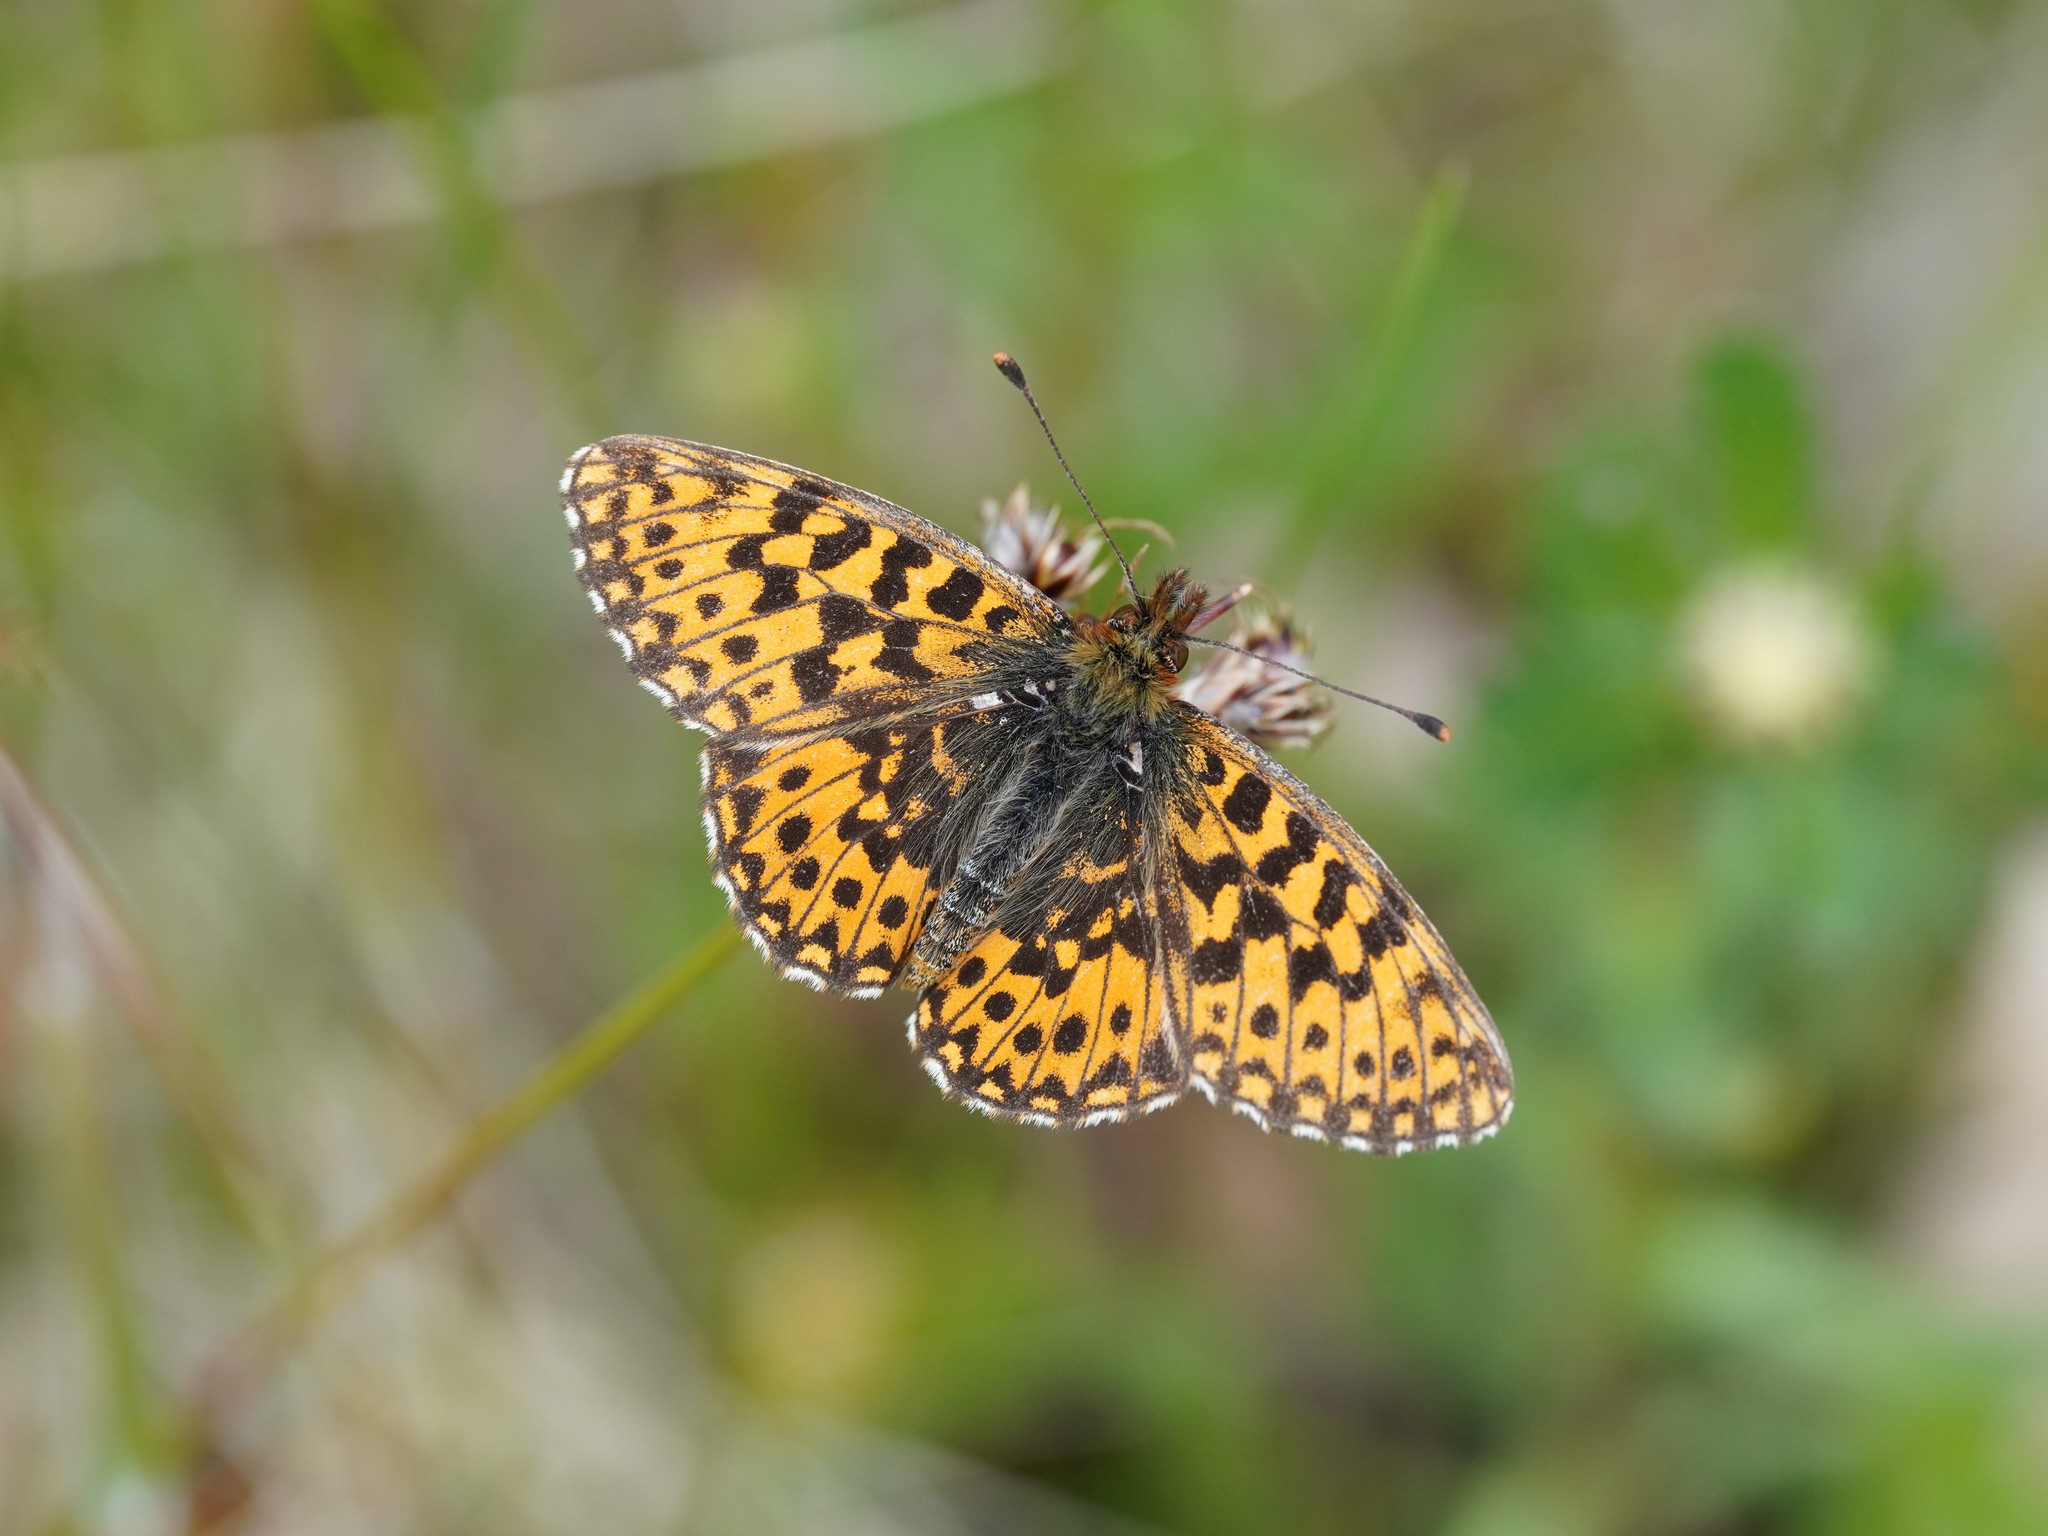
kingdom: Animalia
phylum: Arthropoda
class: Insecta
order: Lepidoptera
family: Nymphalidae
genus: Boloria
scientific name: Boloria dia
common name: Weaver's fritillary
